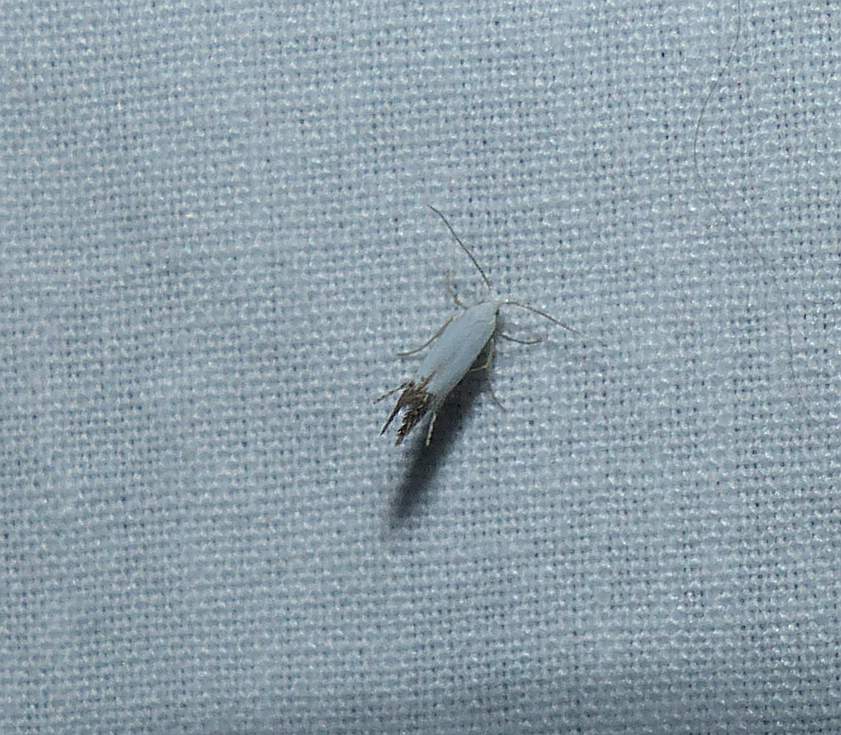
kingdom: Animalia
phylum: Arthropoda
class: Insecta
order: Lepidoptera
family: Argyresthiidae
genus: Argyresthia
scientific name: Argyresthia apicimaculella
